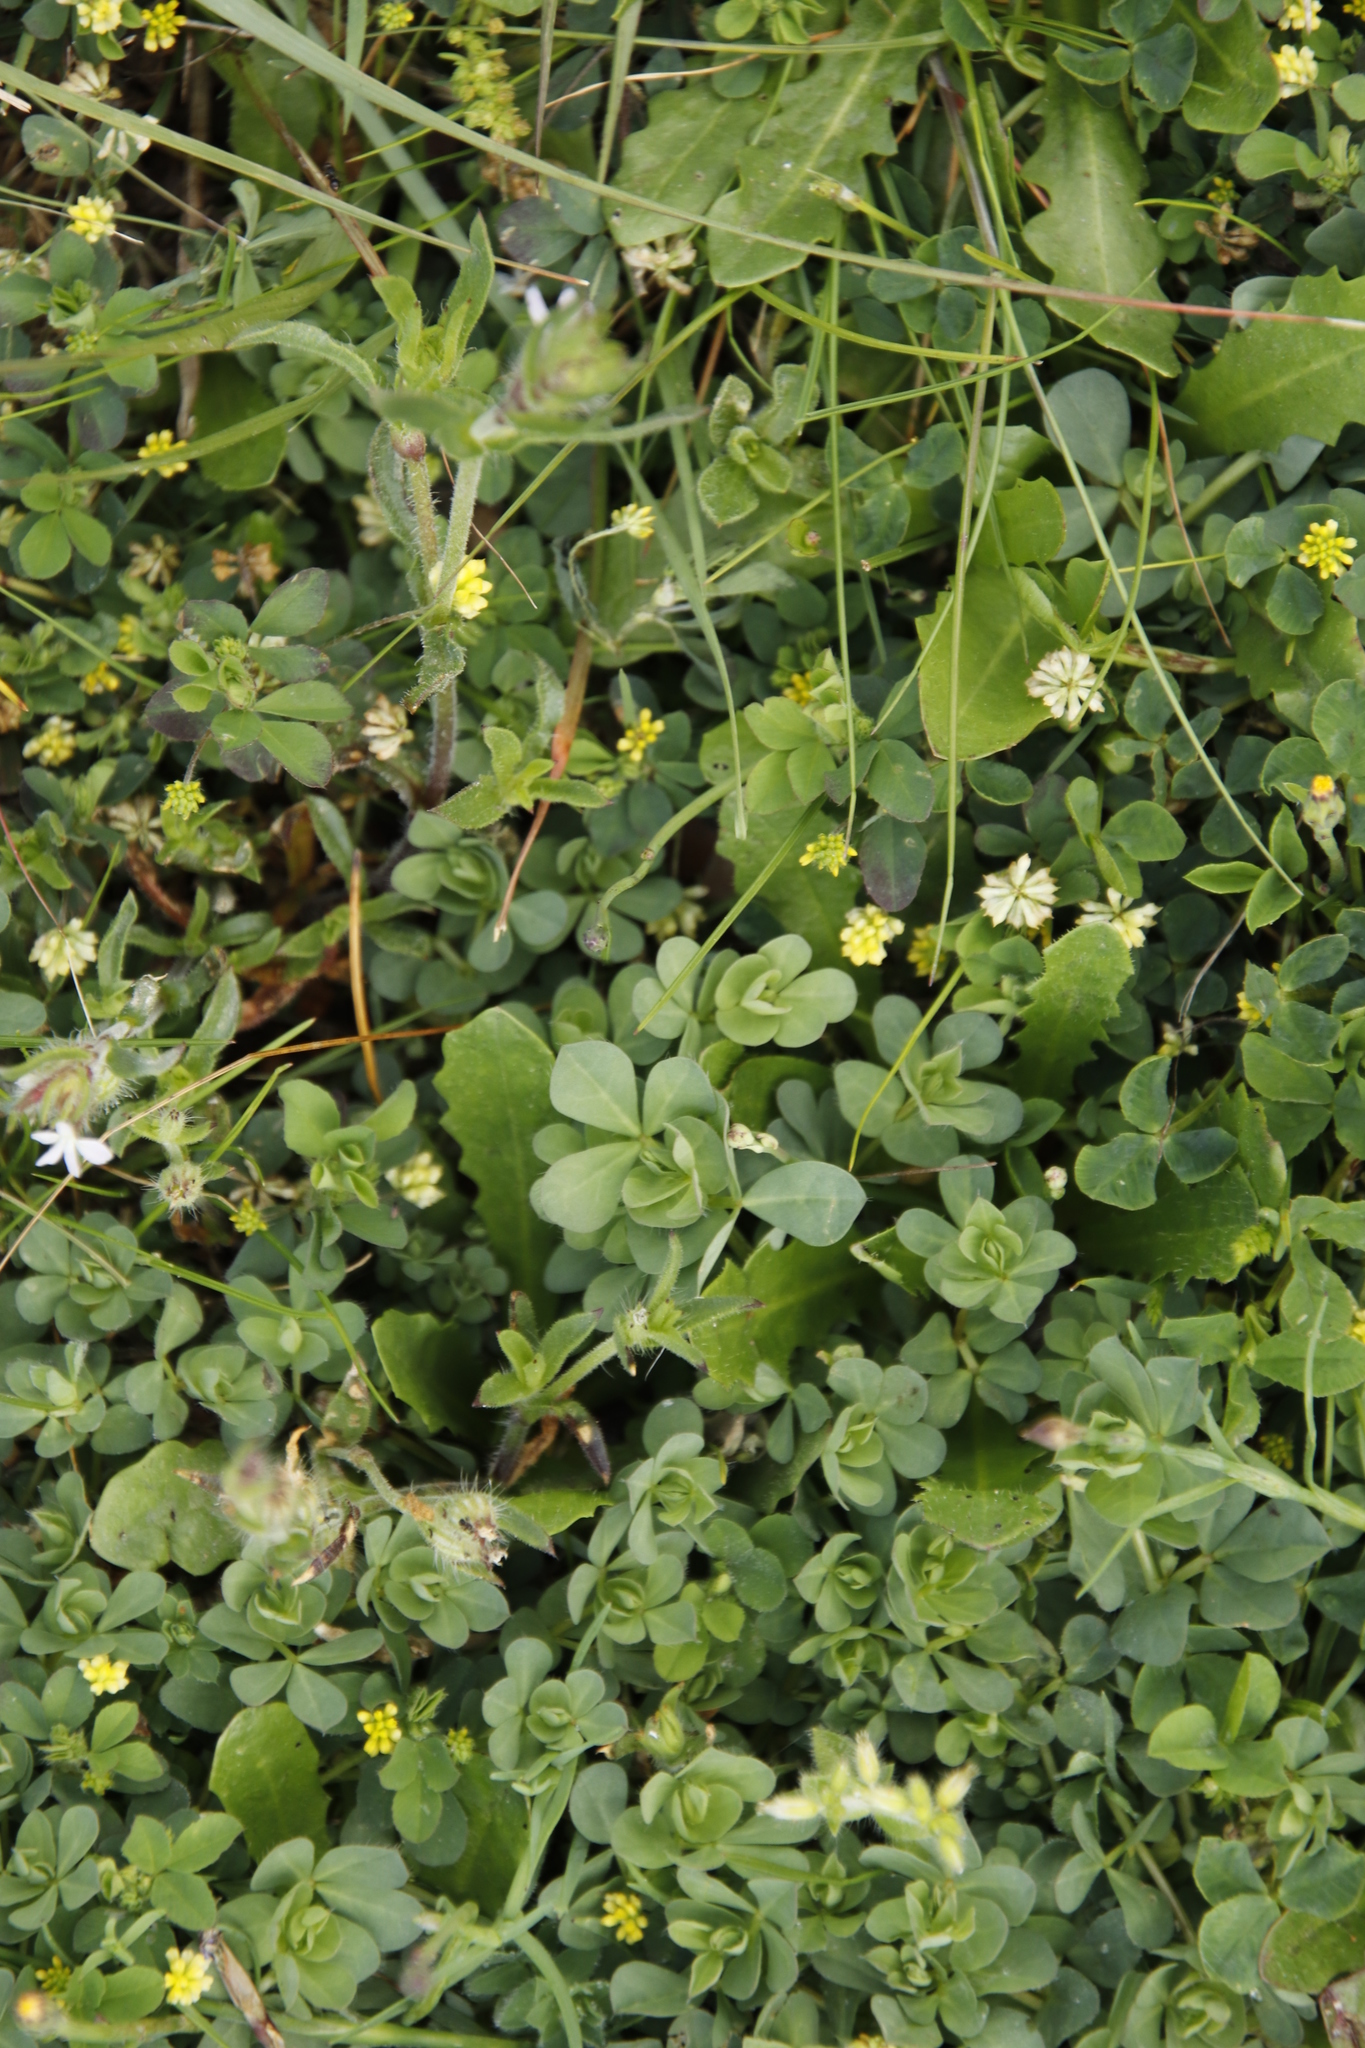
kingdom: Plantae
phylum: Tracheophyta
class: Magnoliopsida
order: Fabales
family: Fabaceae
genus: Trifolium
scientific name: Trifolium dubium
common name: Suckling clover
